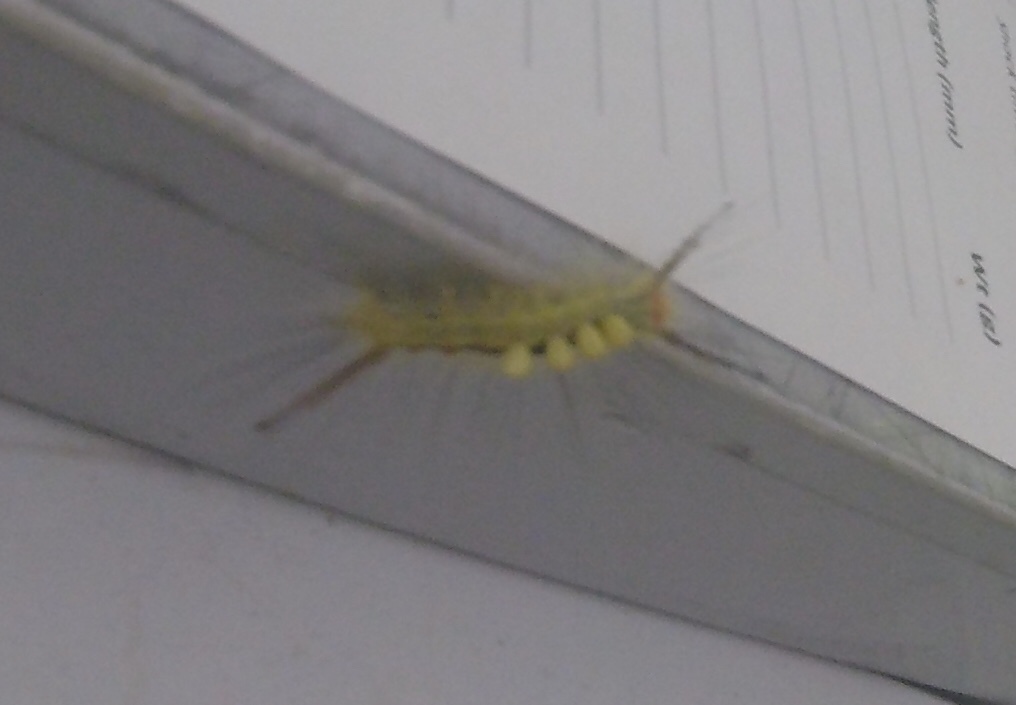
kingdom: Animalia
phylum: Arthropoda
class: Insecta
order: Lepidoptera
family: Erebidae
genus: Orgyia
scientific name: Orgyia leucostigma
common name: White-marked tussock moth
